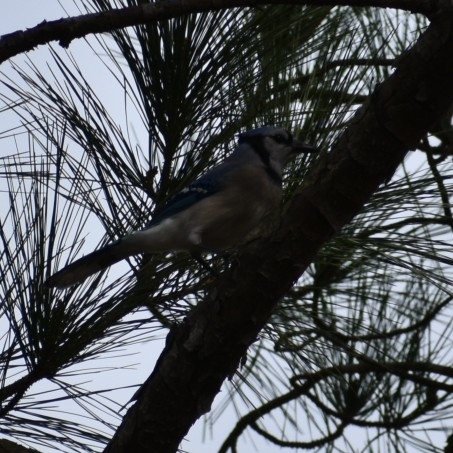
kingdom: Animalia
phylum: Chordata
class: Aves
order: Passeriformes
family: Corvidae
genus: Cyanocitta
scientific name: Cyanocitta cristata
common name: Blue jay
